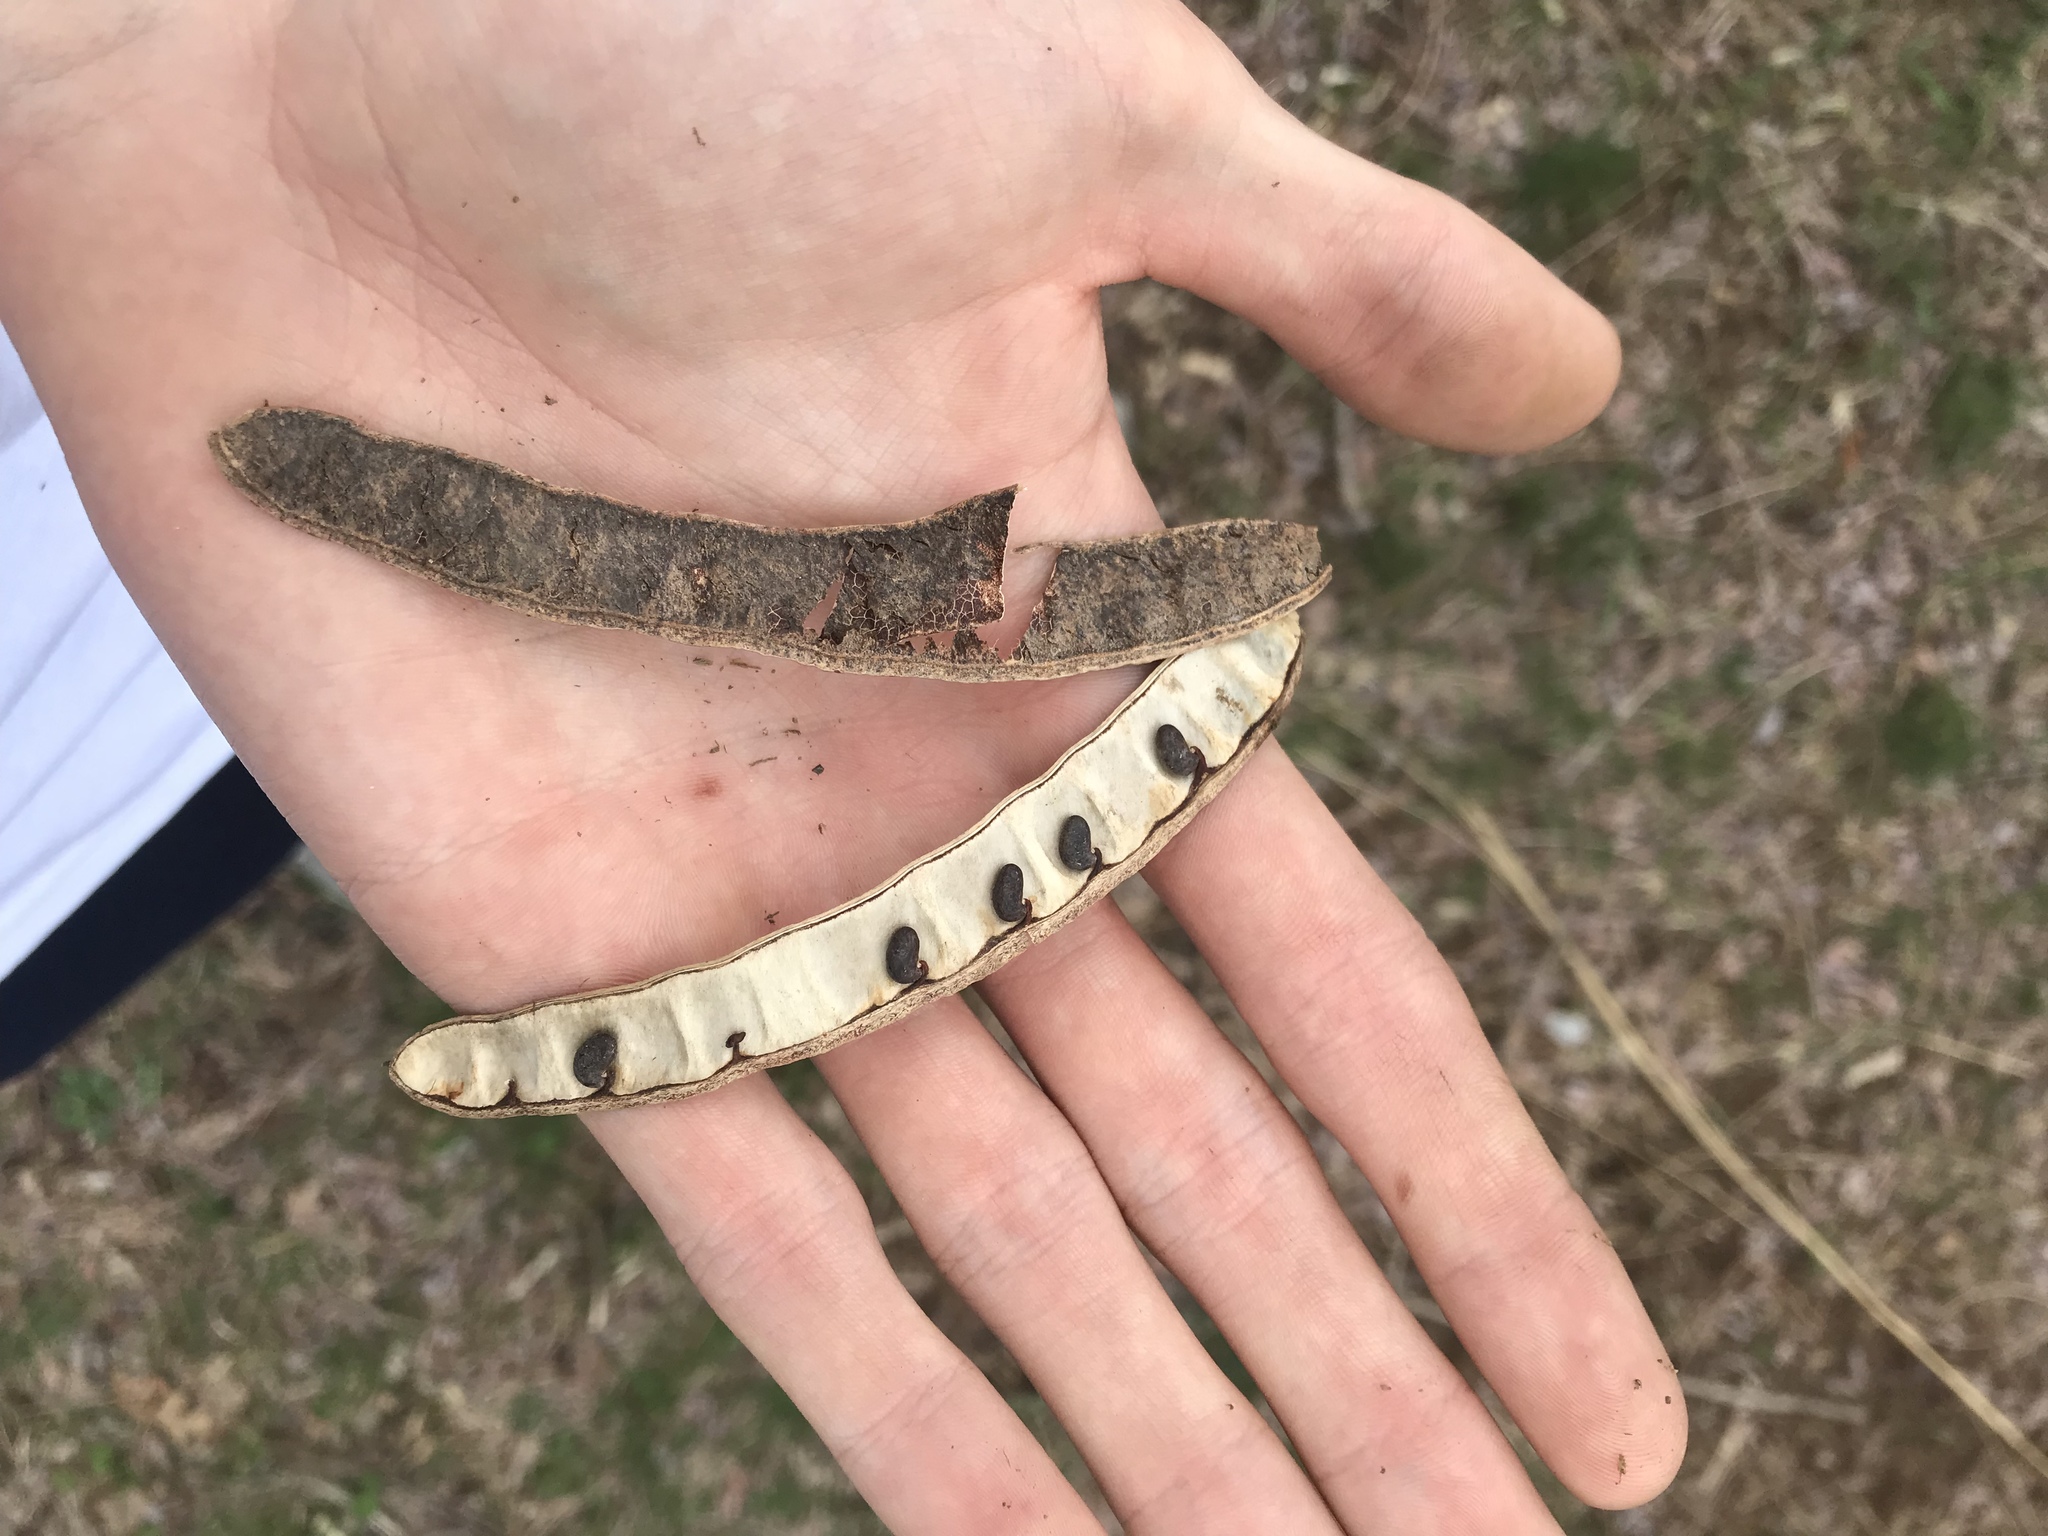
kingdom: Plantae
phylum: Tracheophyta
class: Magnoliopsida
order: Fabales
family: Fabaceae
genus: Robinia
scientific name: Robinia pseudoacacia
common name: Black locust
